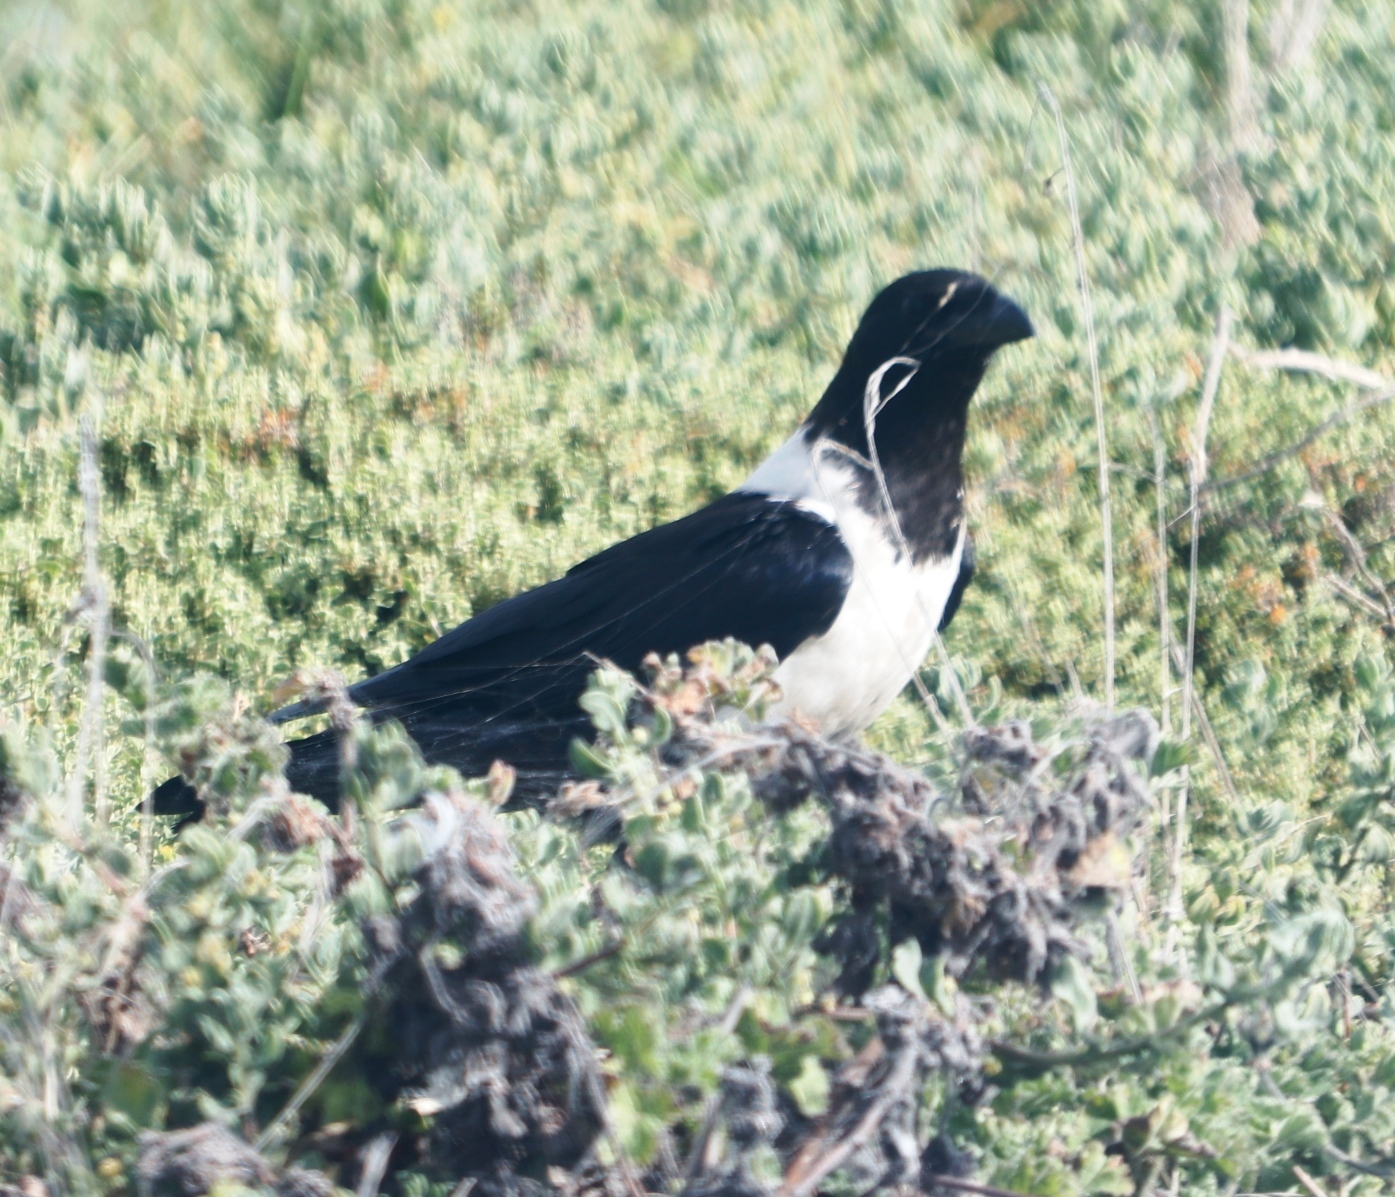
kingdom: Animalia
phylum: Chordata
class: Aves
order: Passeriformes
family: Corvidae
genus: Corvus
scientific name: Corvus albus
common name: Pied crow
